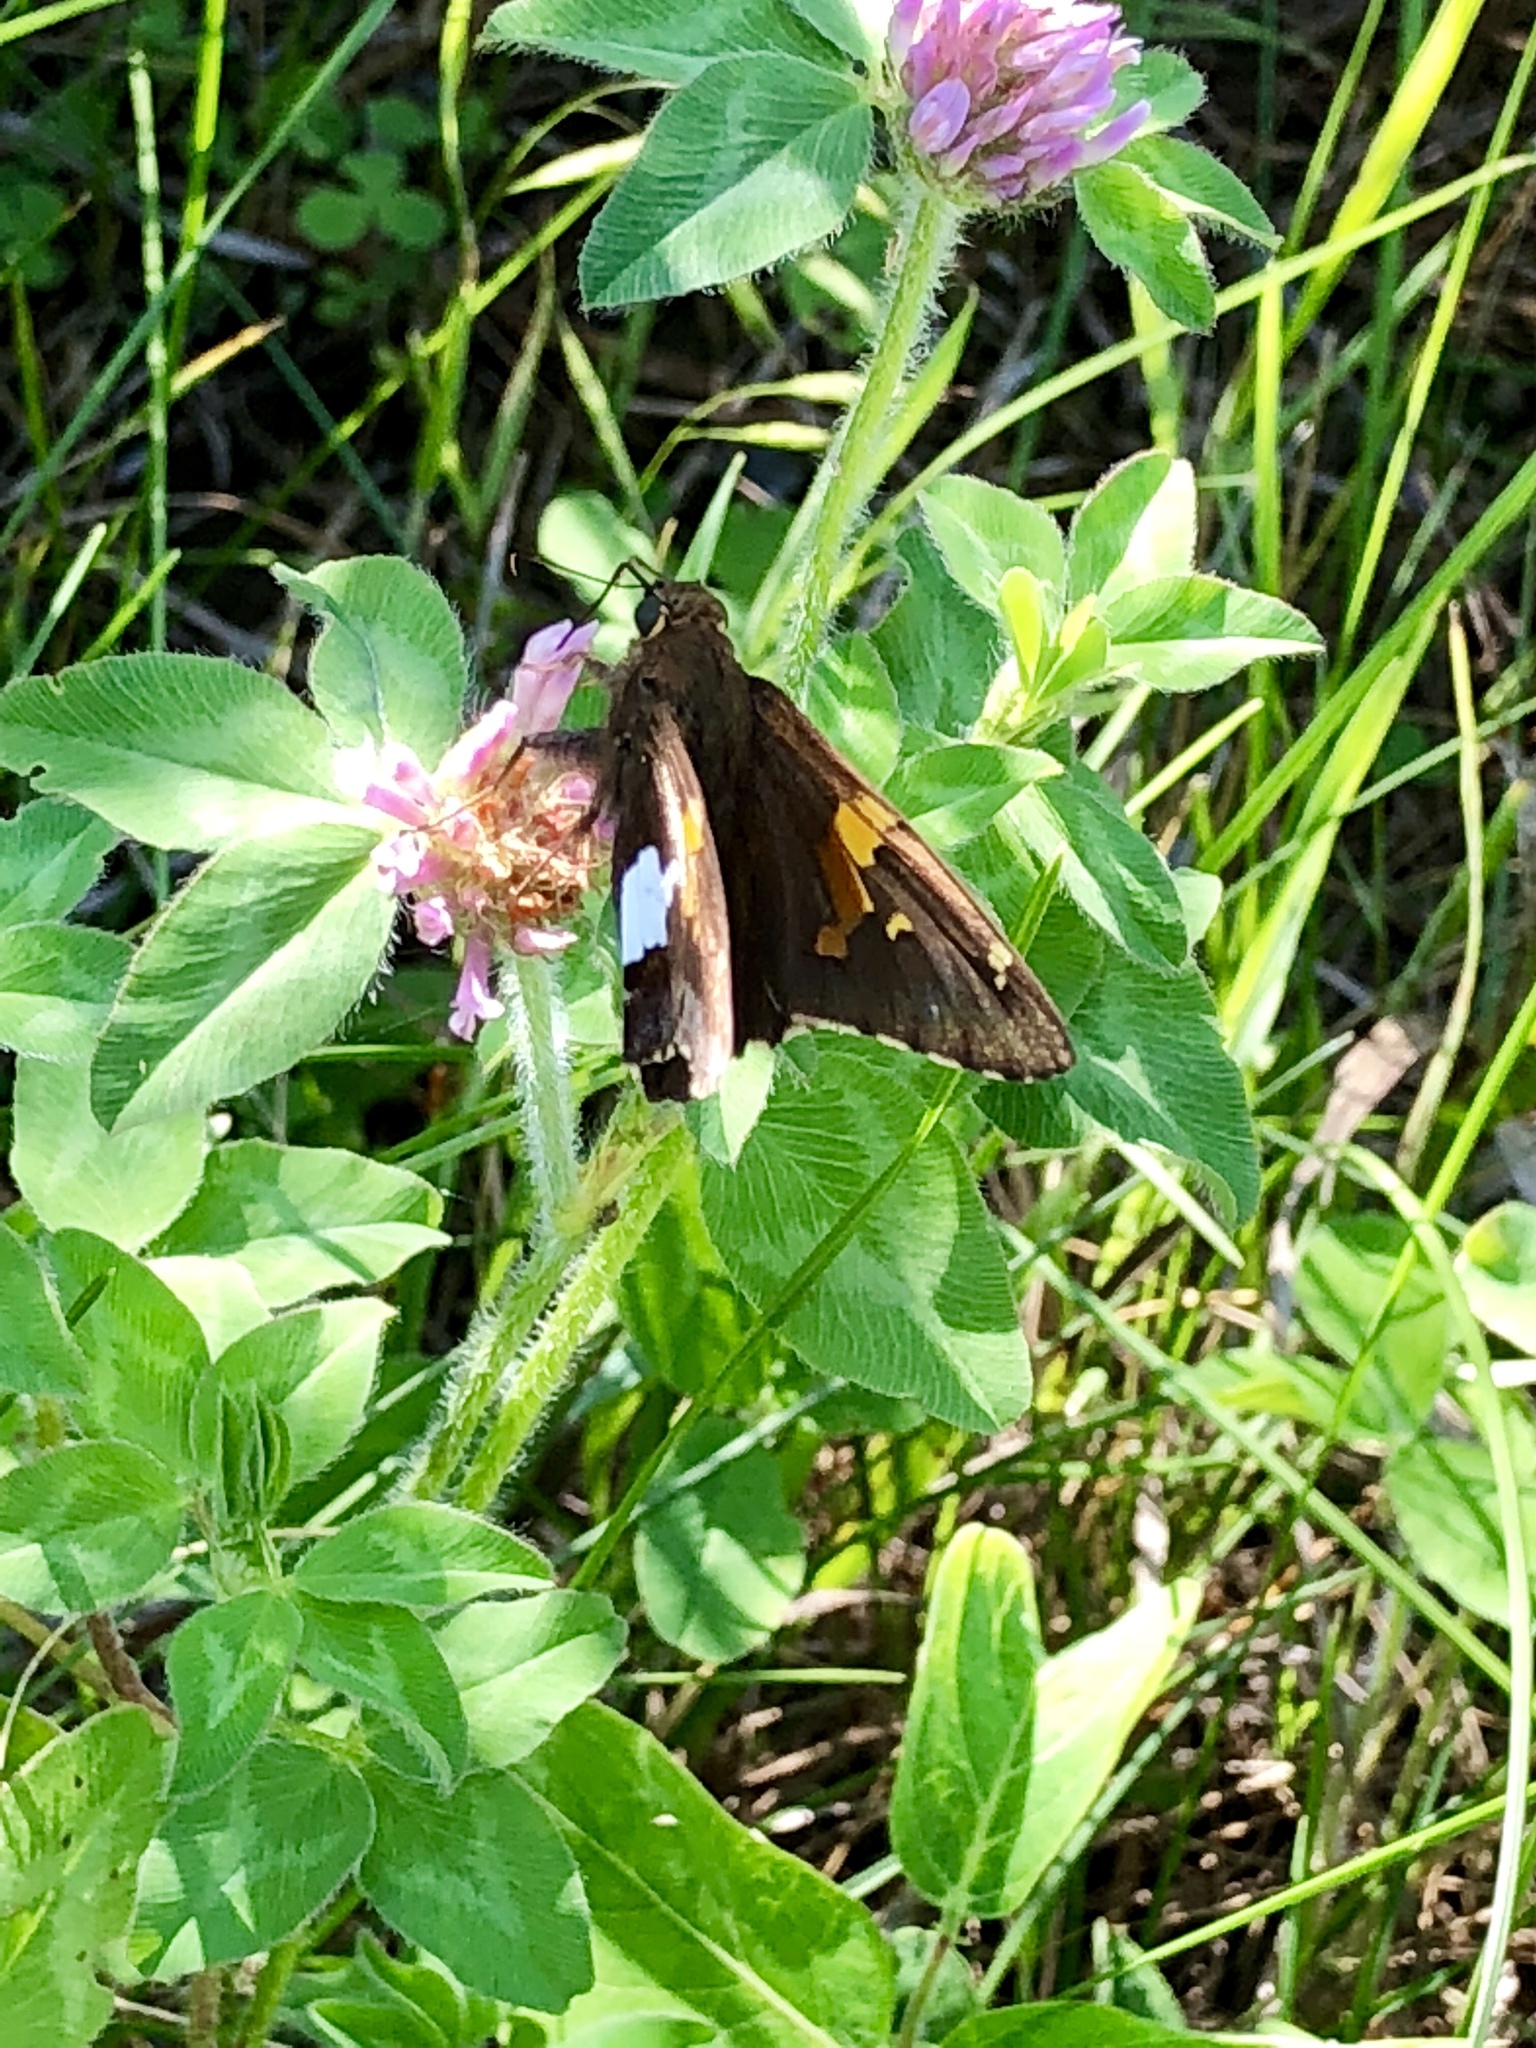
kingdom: Animalia
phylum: Arthropoda
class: Insecta
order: Lepidoptera
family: Hesperiidae
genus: Epargyreus
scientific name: Epargyreus clarus
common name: Silver-spotted skipper
